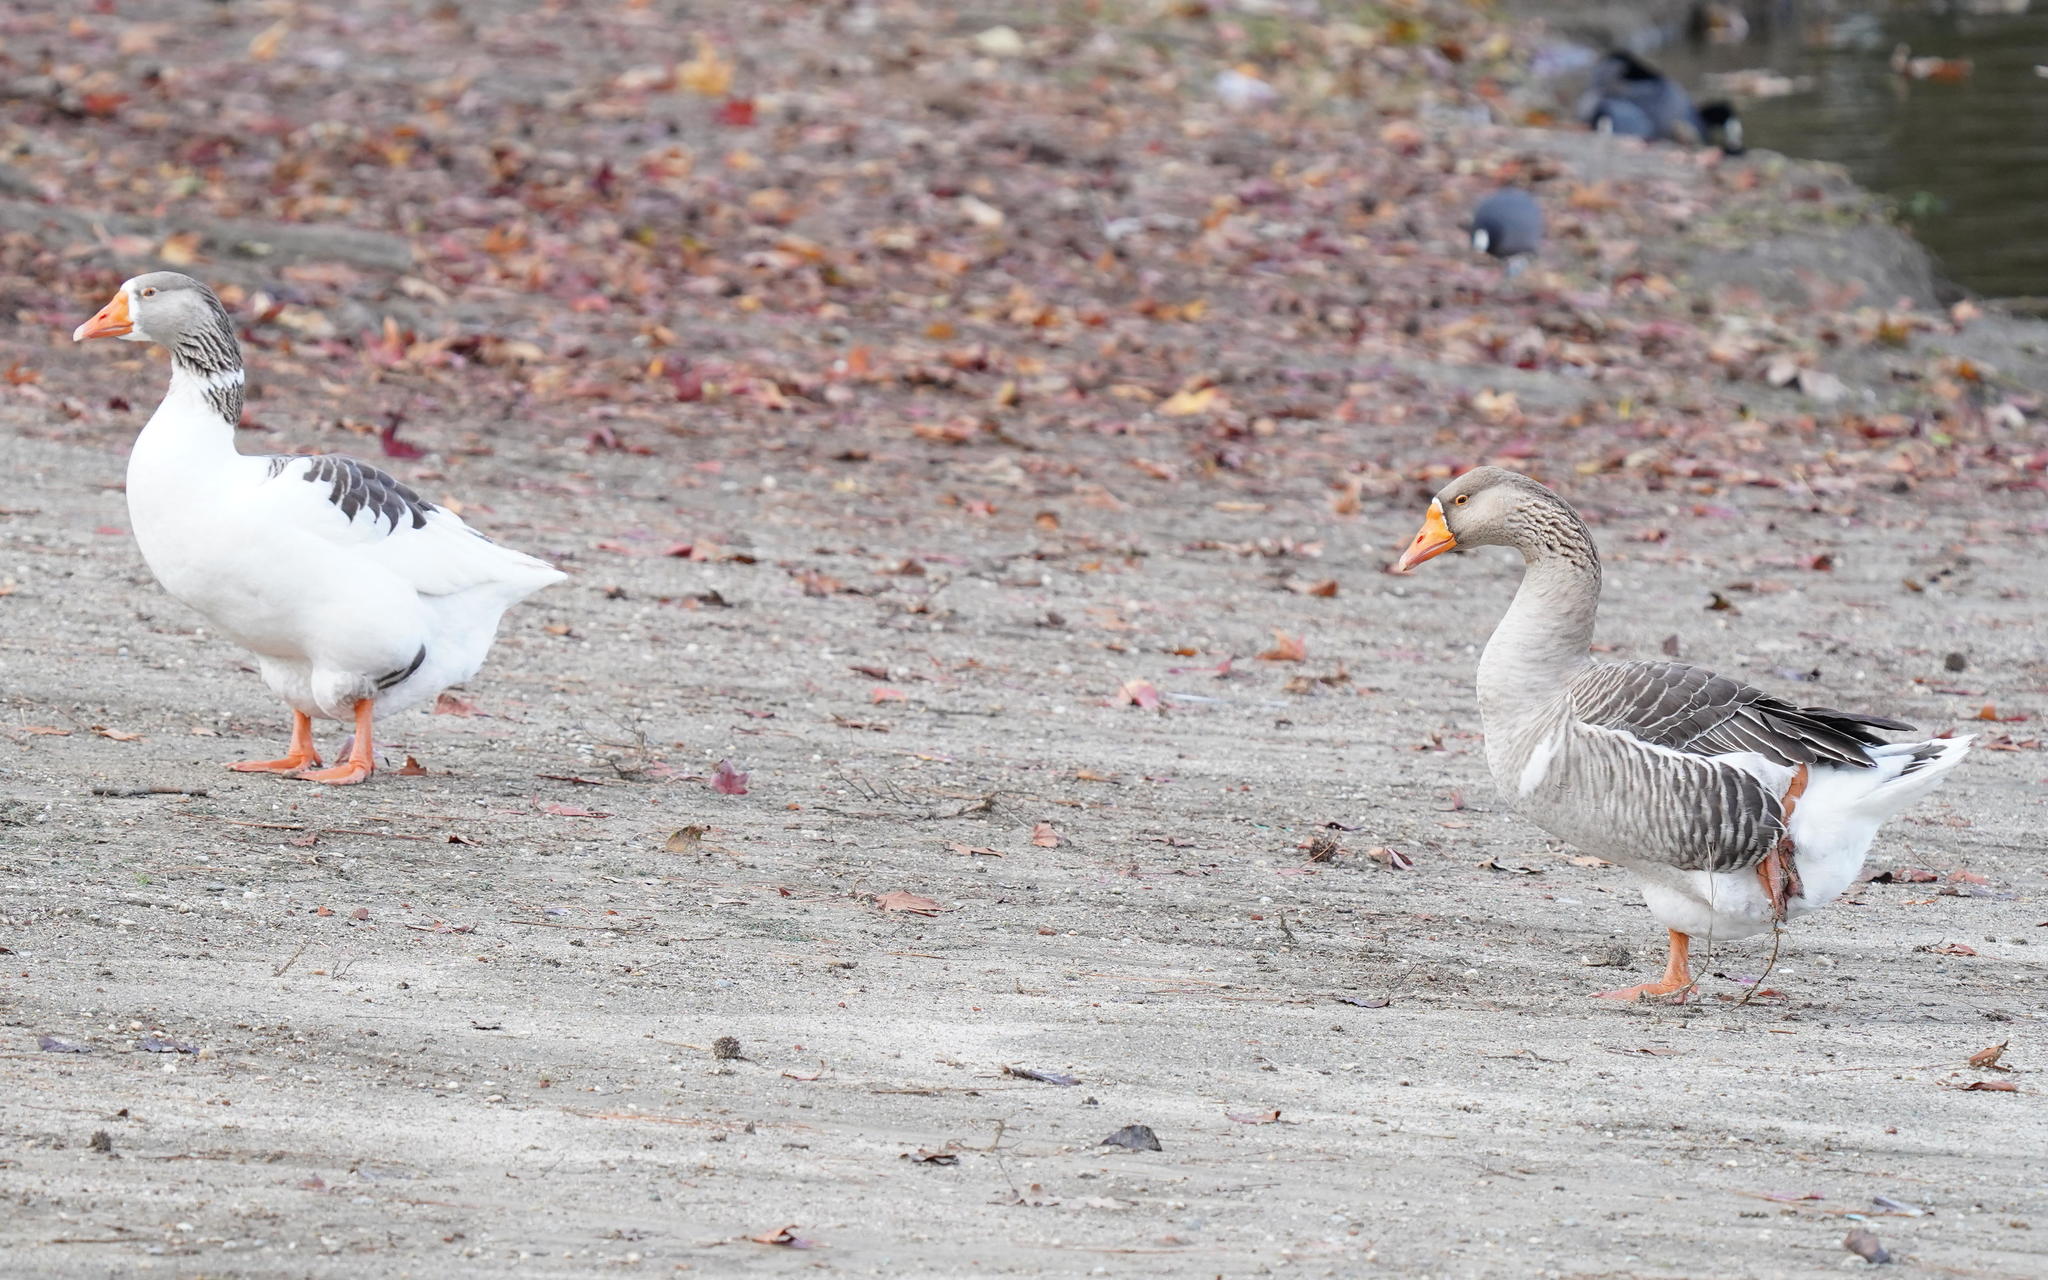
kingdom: Animalia
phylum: Chordata
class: Aves
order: Anseriformes
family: Anatidae
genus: Anser
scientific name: Anser
